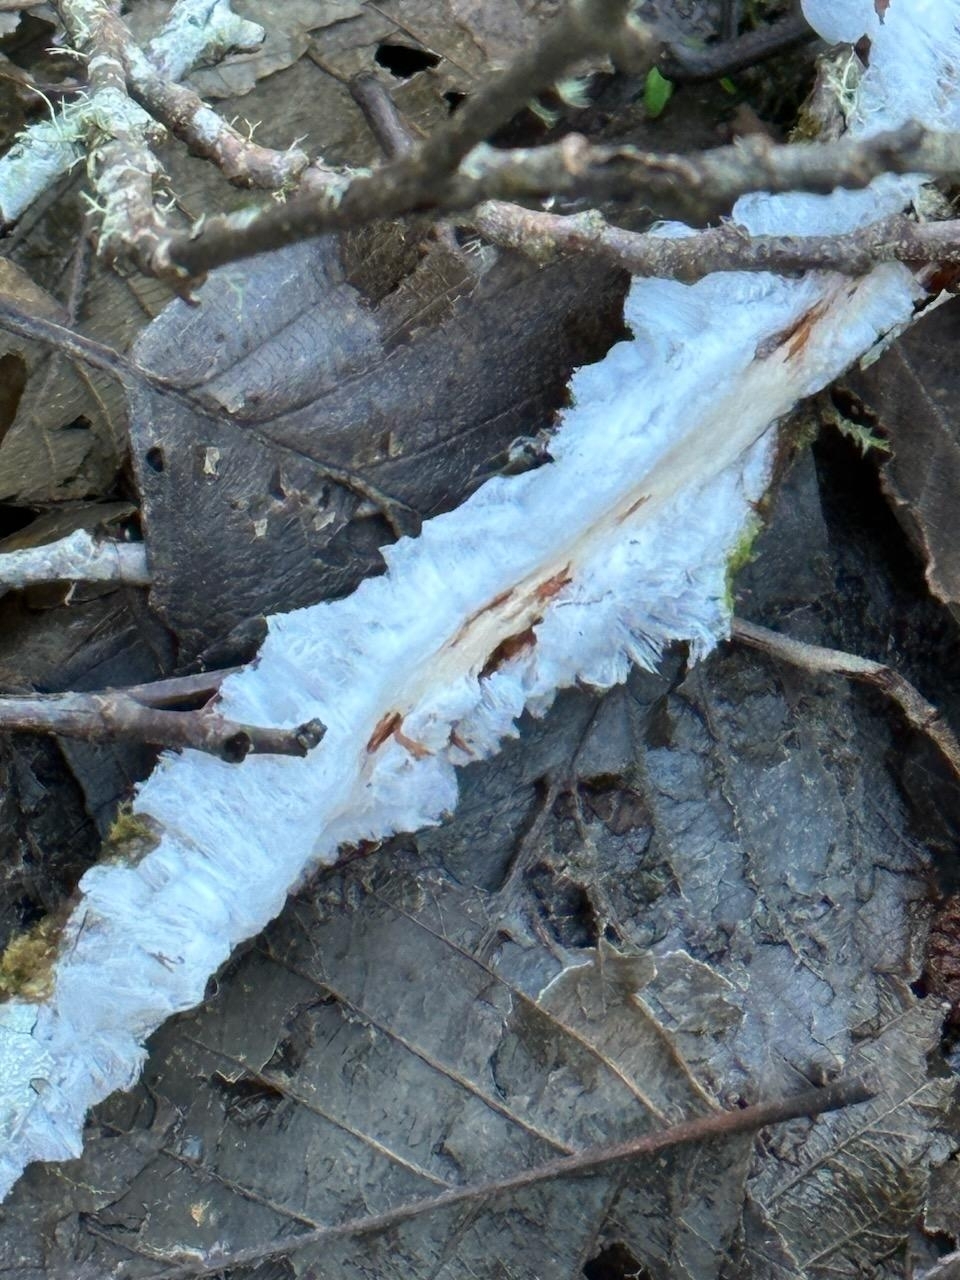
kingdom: Fungi
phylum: Basidiomycota
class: Agaricomycetes
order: Auriculariales
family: Auriculariaceae
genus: Exidiopsis
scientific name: Exidiopsis effusa
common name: Hair ice crust
